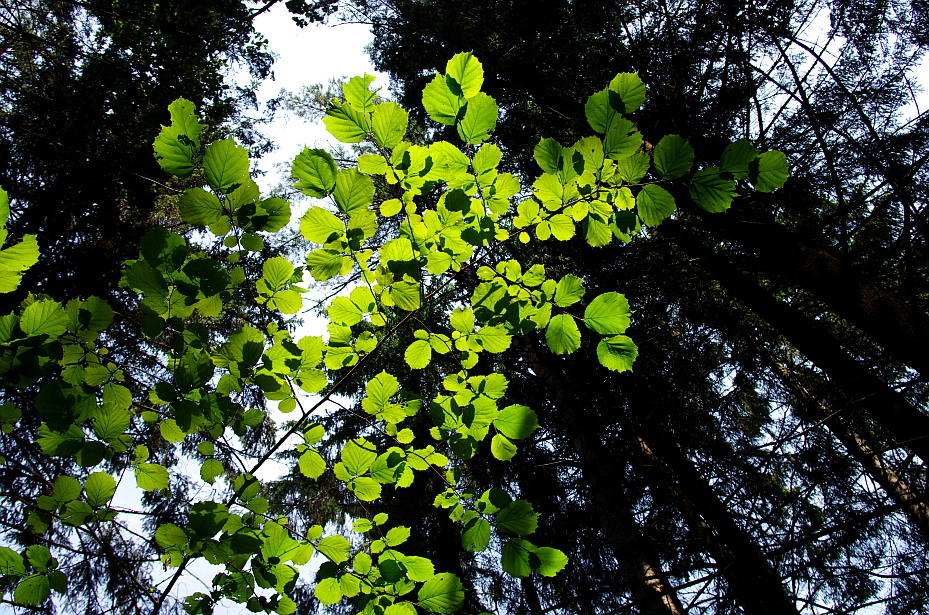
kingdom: Plantae
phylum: Tracheophyta
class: Magnoliopsida
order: Fagales
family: Betulaceae
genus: Corylus
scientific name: Corylus avellana
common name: European hazel
